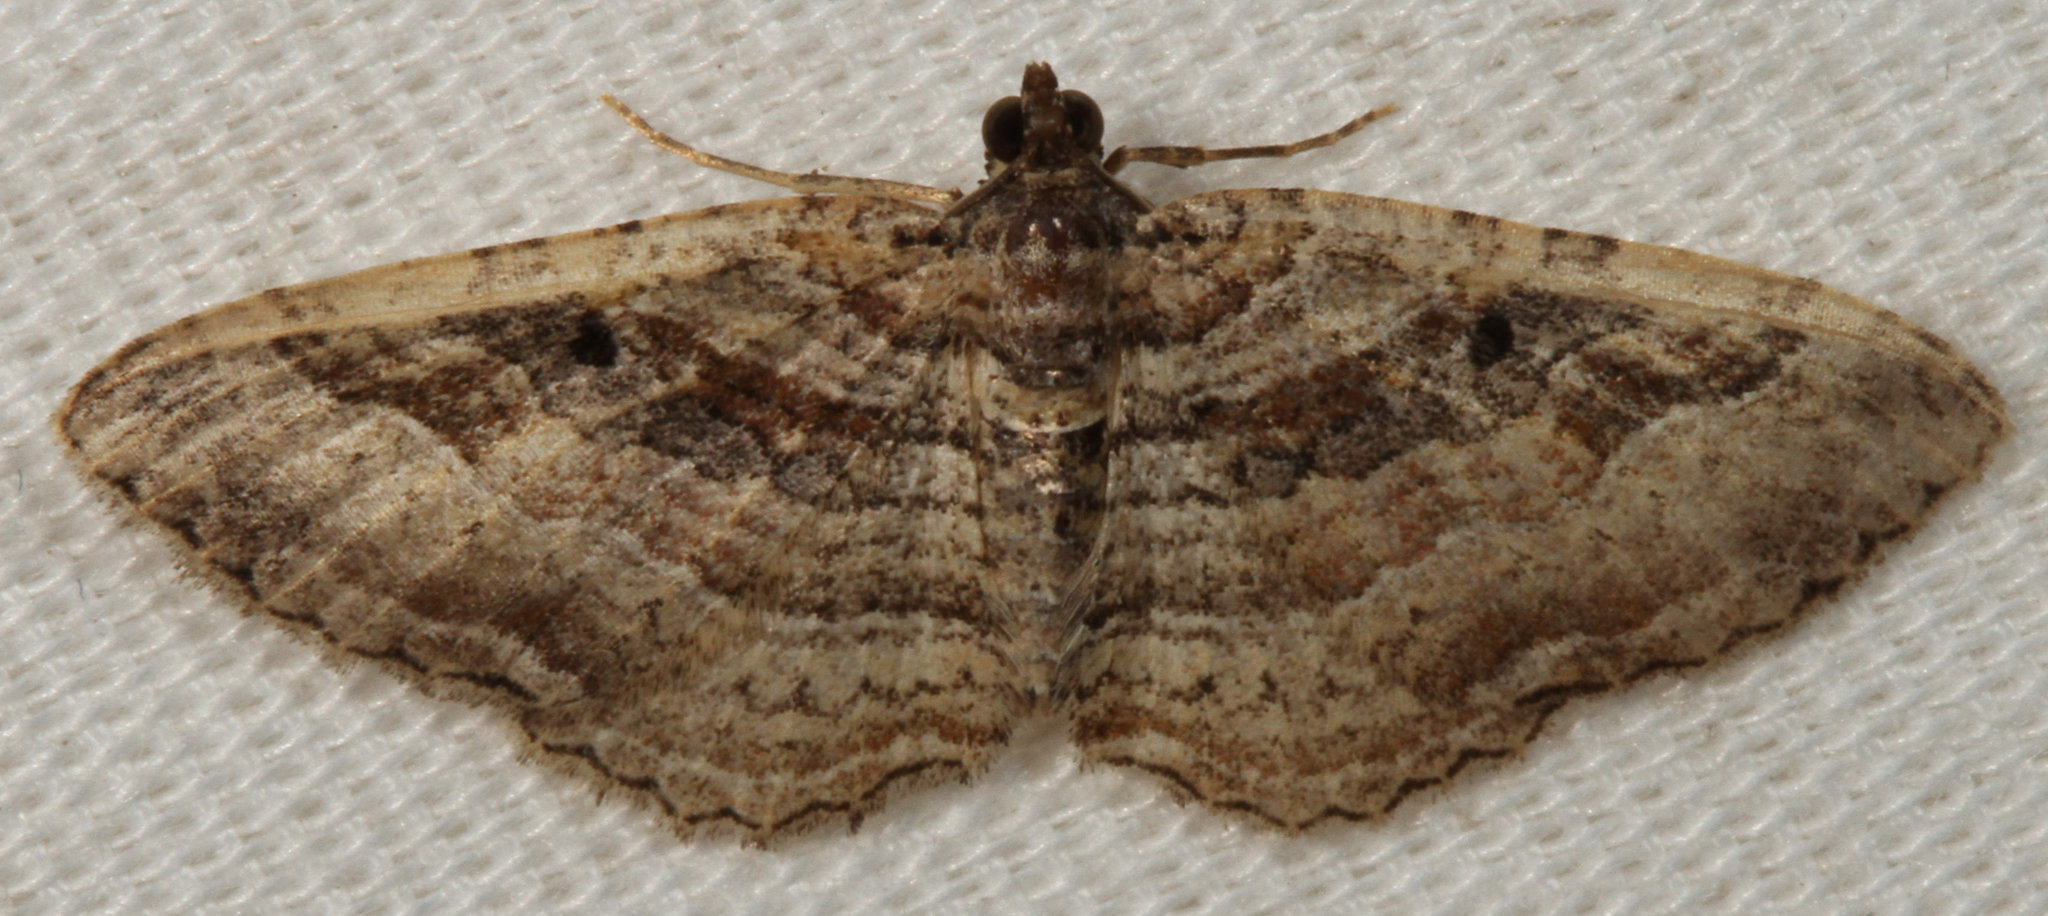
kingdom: Animalia
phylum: Arthropoda
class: Insecta
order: Lepidoptera
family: Geometridae
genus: Costaconvexa
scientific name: Costaconvexa centrostrigaria
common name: Bent-line carpet
